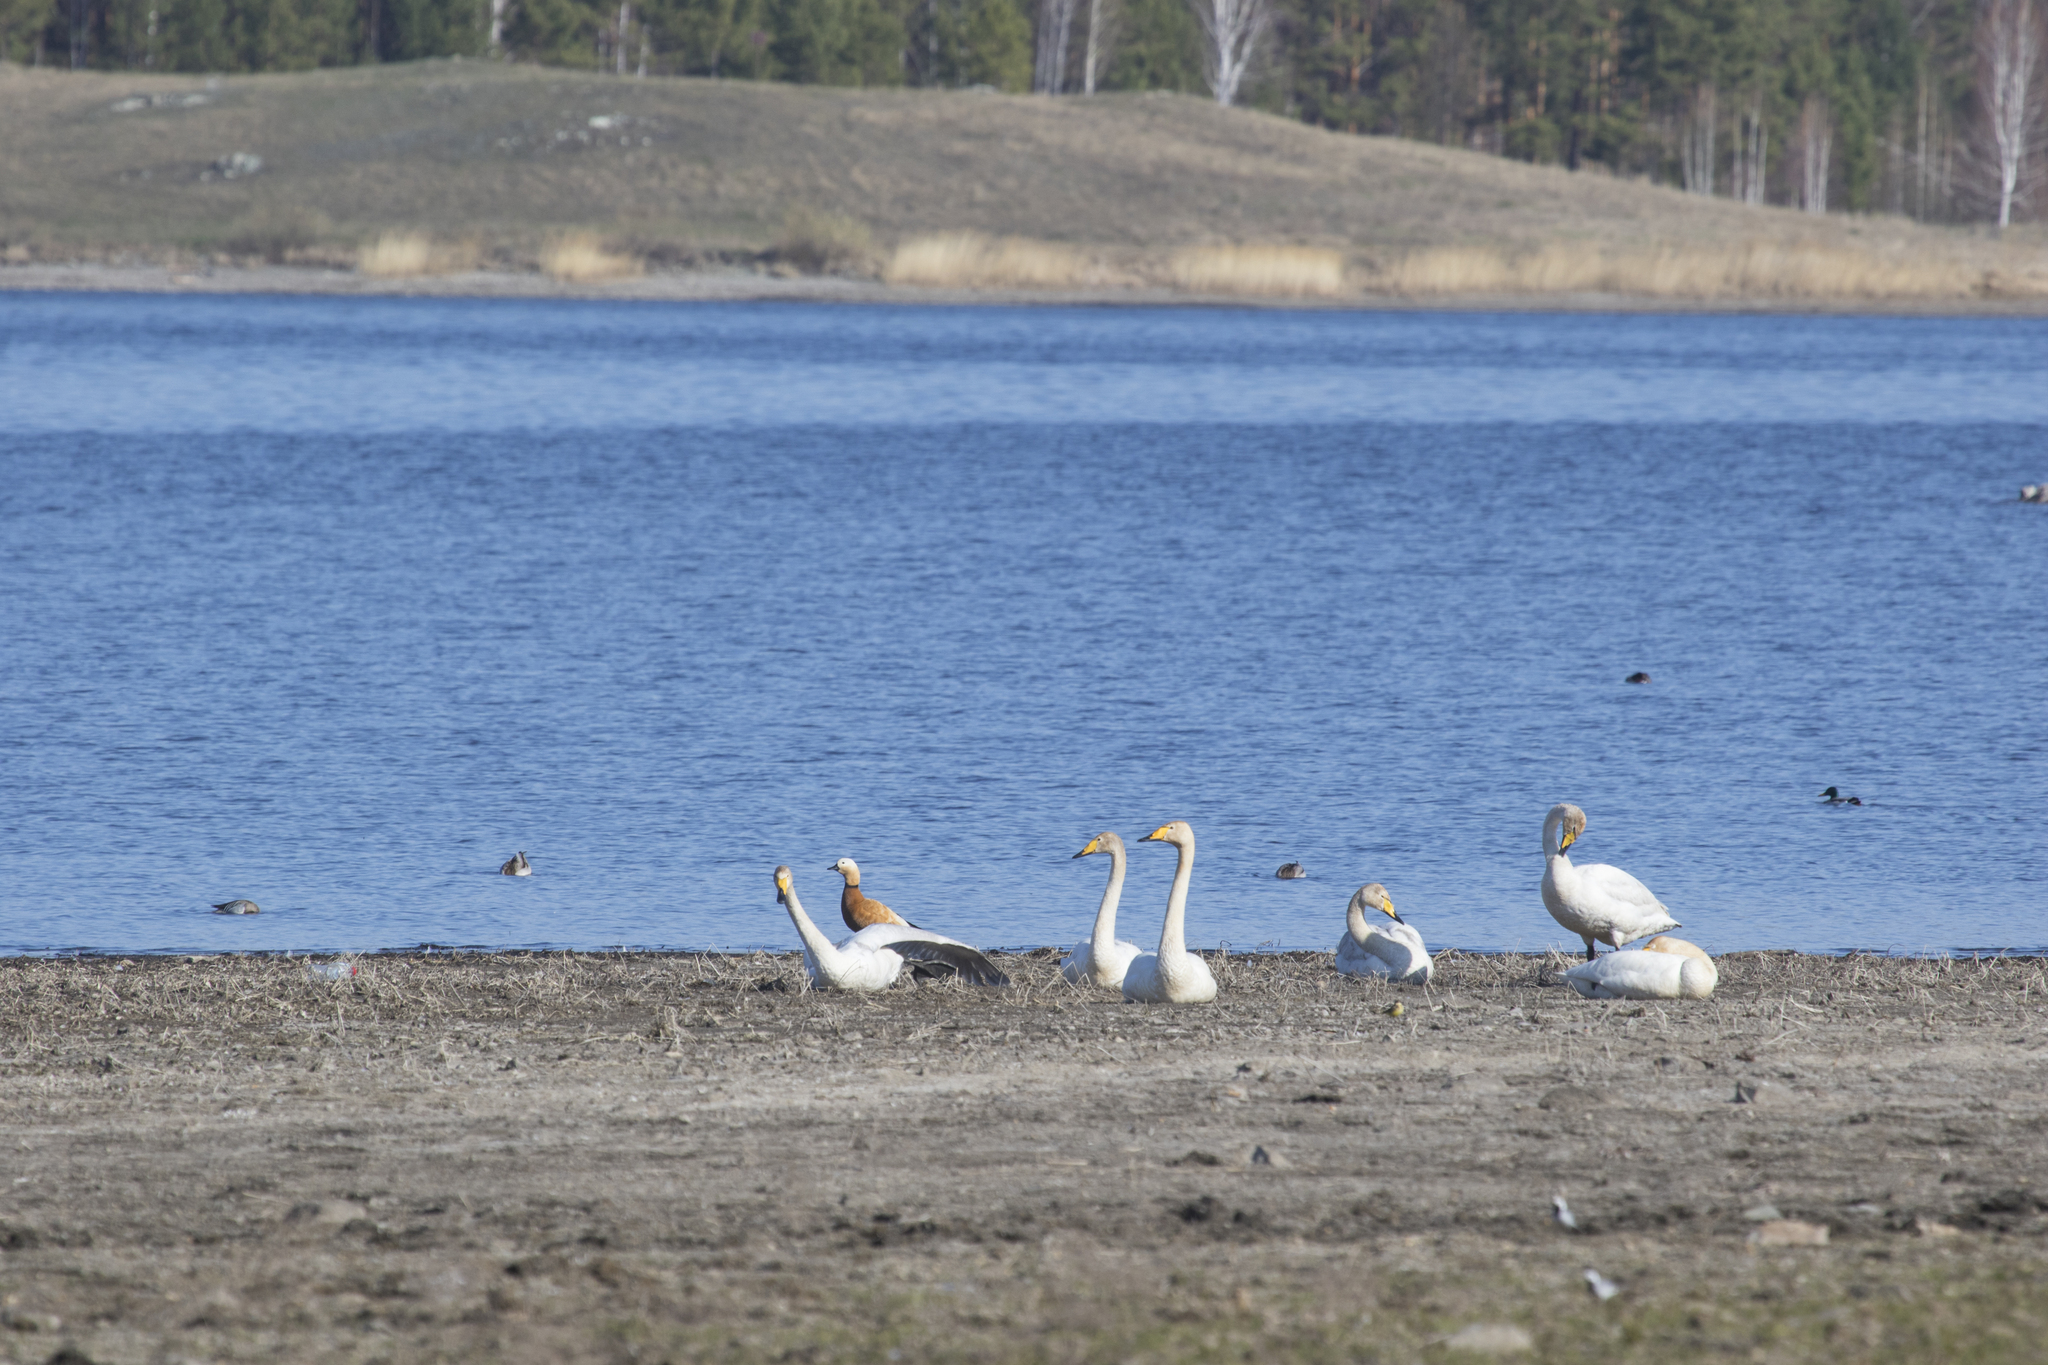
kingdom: Animalia
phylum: Chordata
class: Aves
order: Anseriformes
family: Anatidae
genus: Cygnus
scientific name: Cygnus cygnus
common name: Whooper swan
